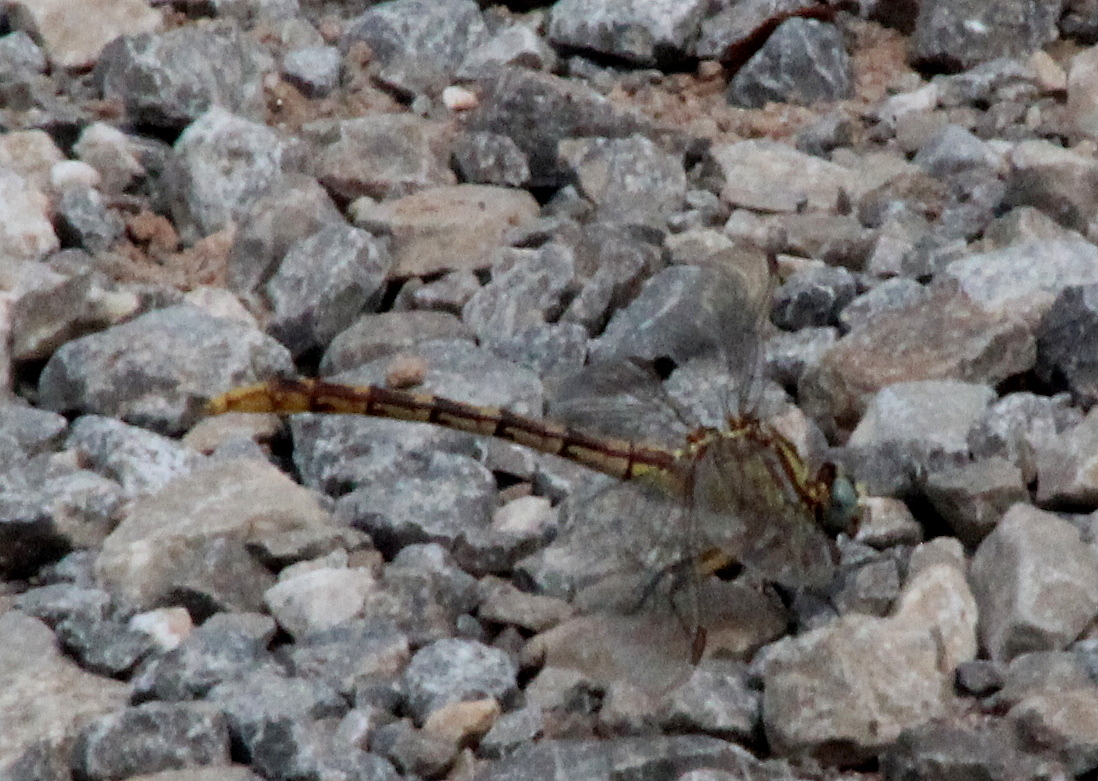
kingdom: Animalia
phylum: Arthropoda
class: Insecta
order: Odonata
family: Gomphidae
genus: Phanogomphus
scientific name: Phanogomphus militaris
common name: Sulphur-tipped clubtail
